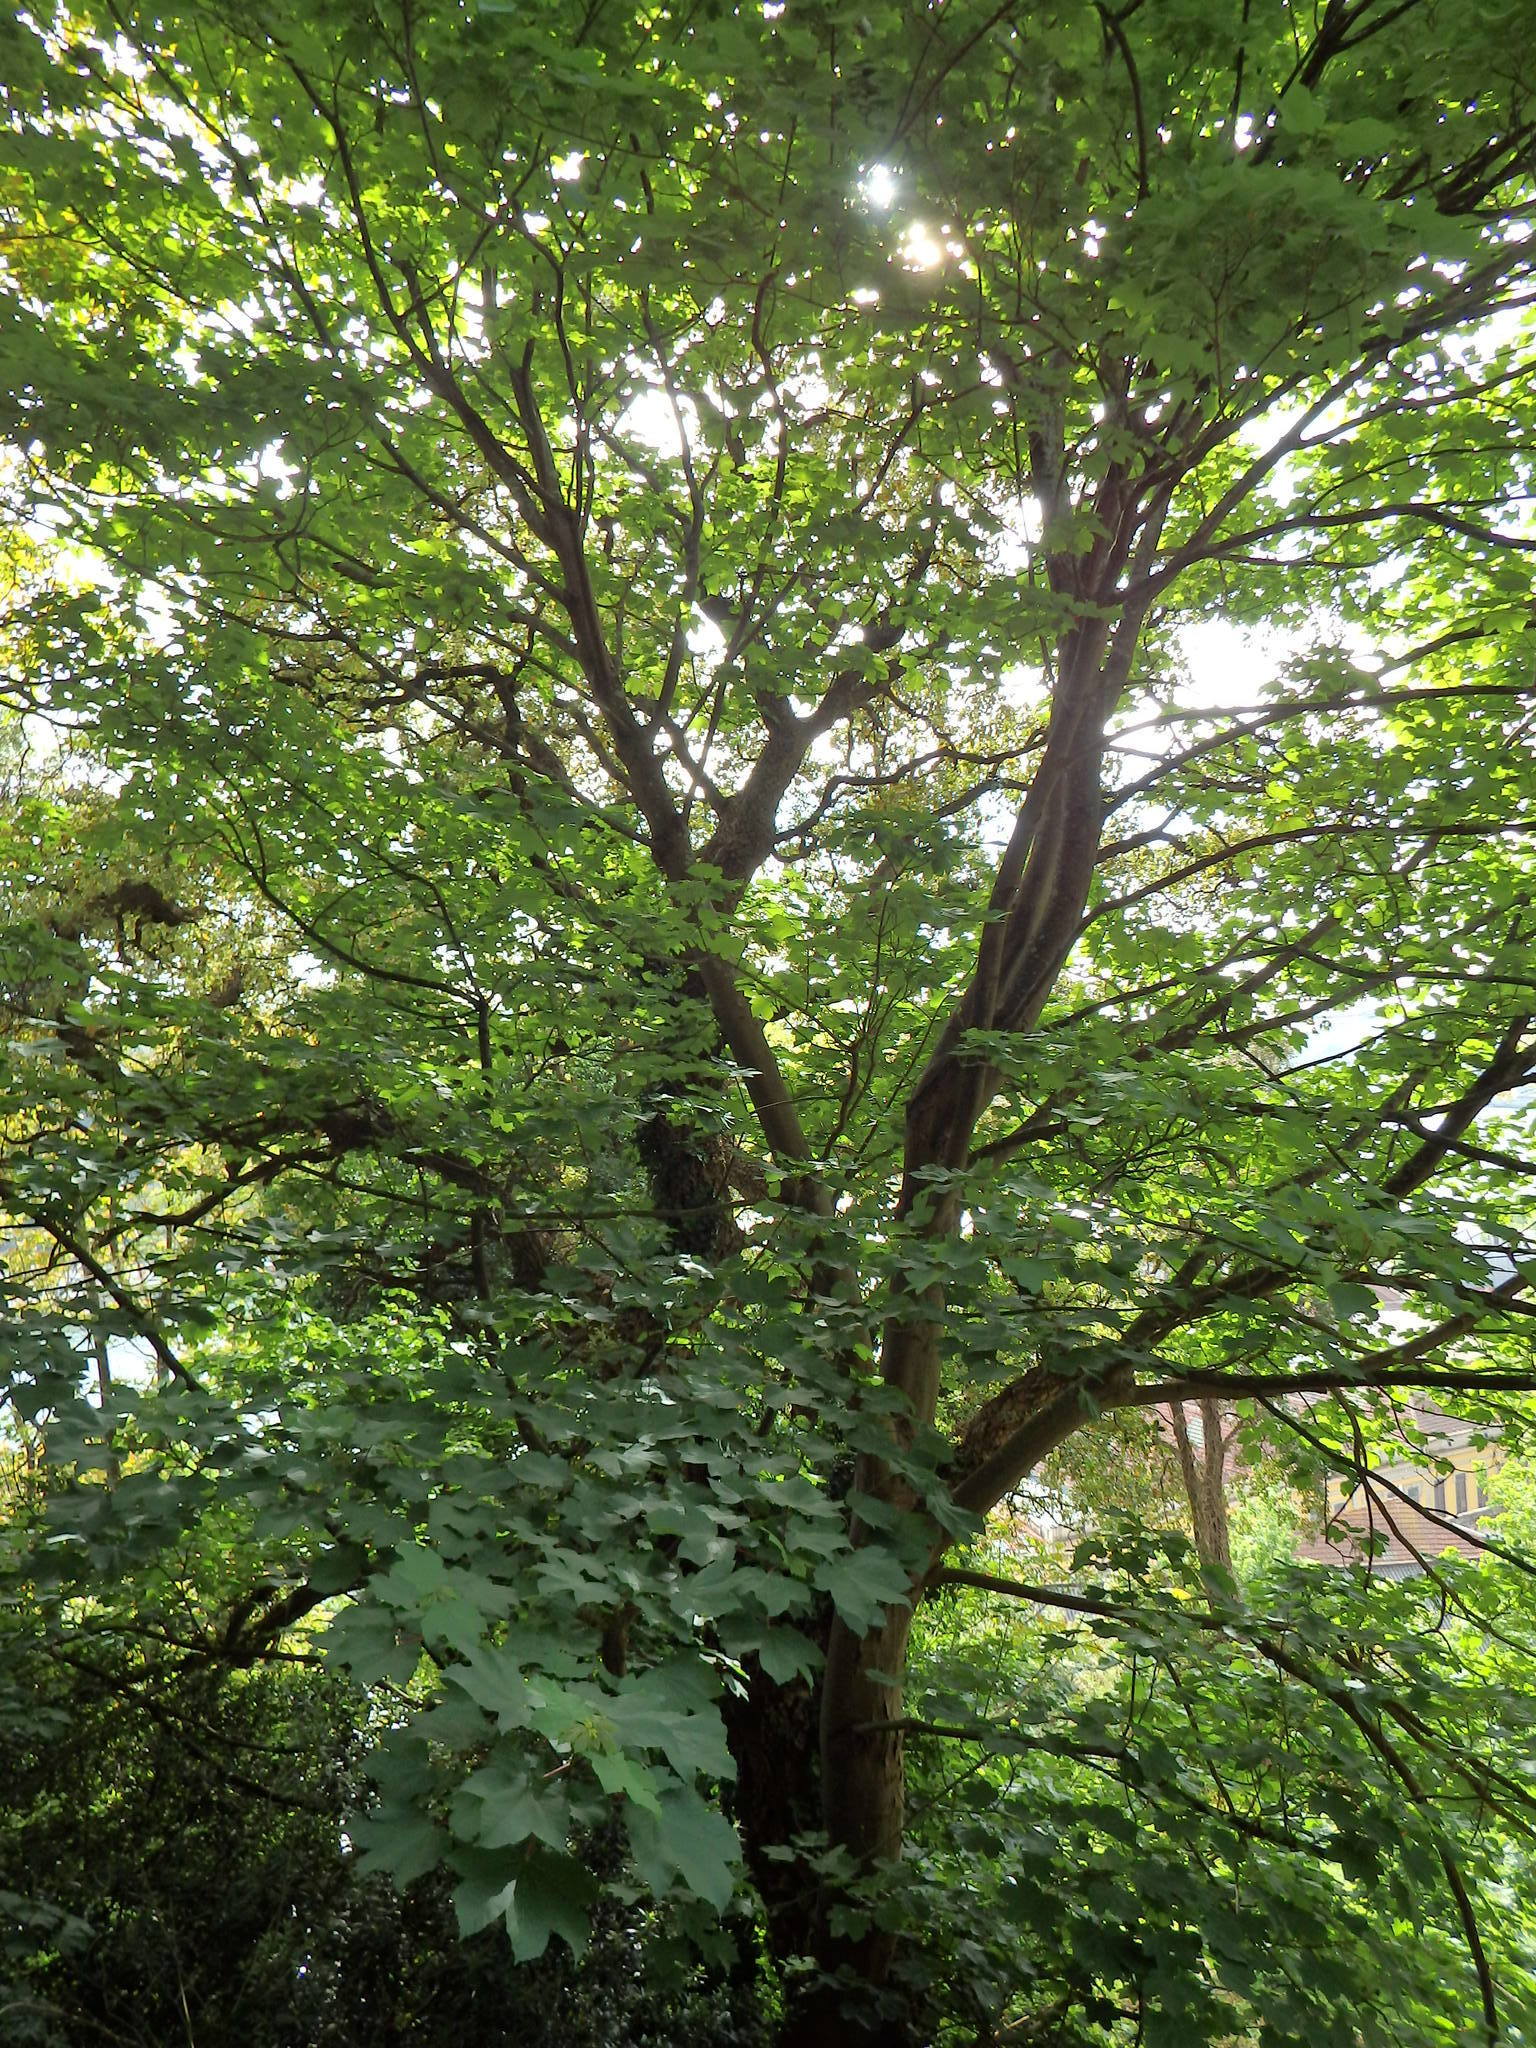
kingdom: Plantae
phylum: Tracheophyta
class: Magnoliopsida
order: Sapindales
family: Sapindaceae
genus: Acer
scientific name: Acer pseudoplatanus
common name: Sycamore
